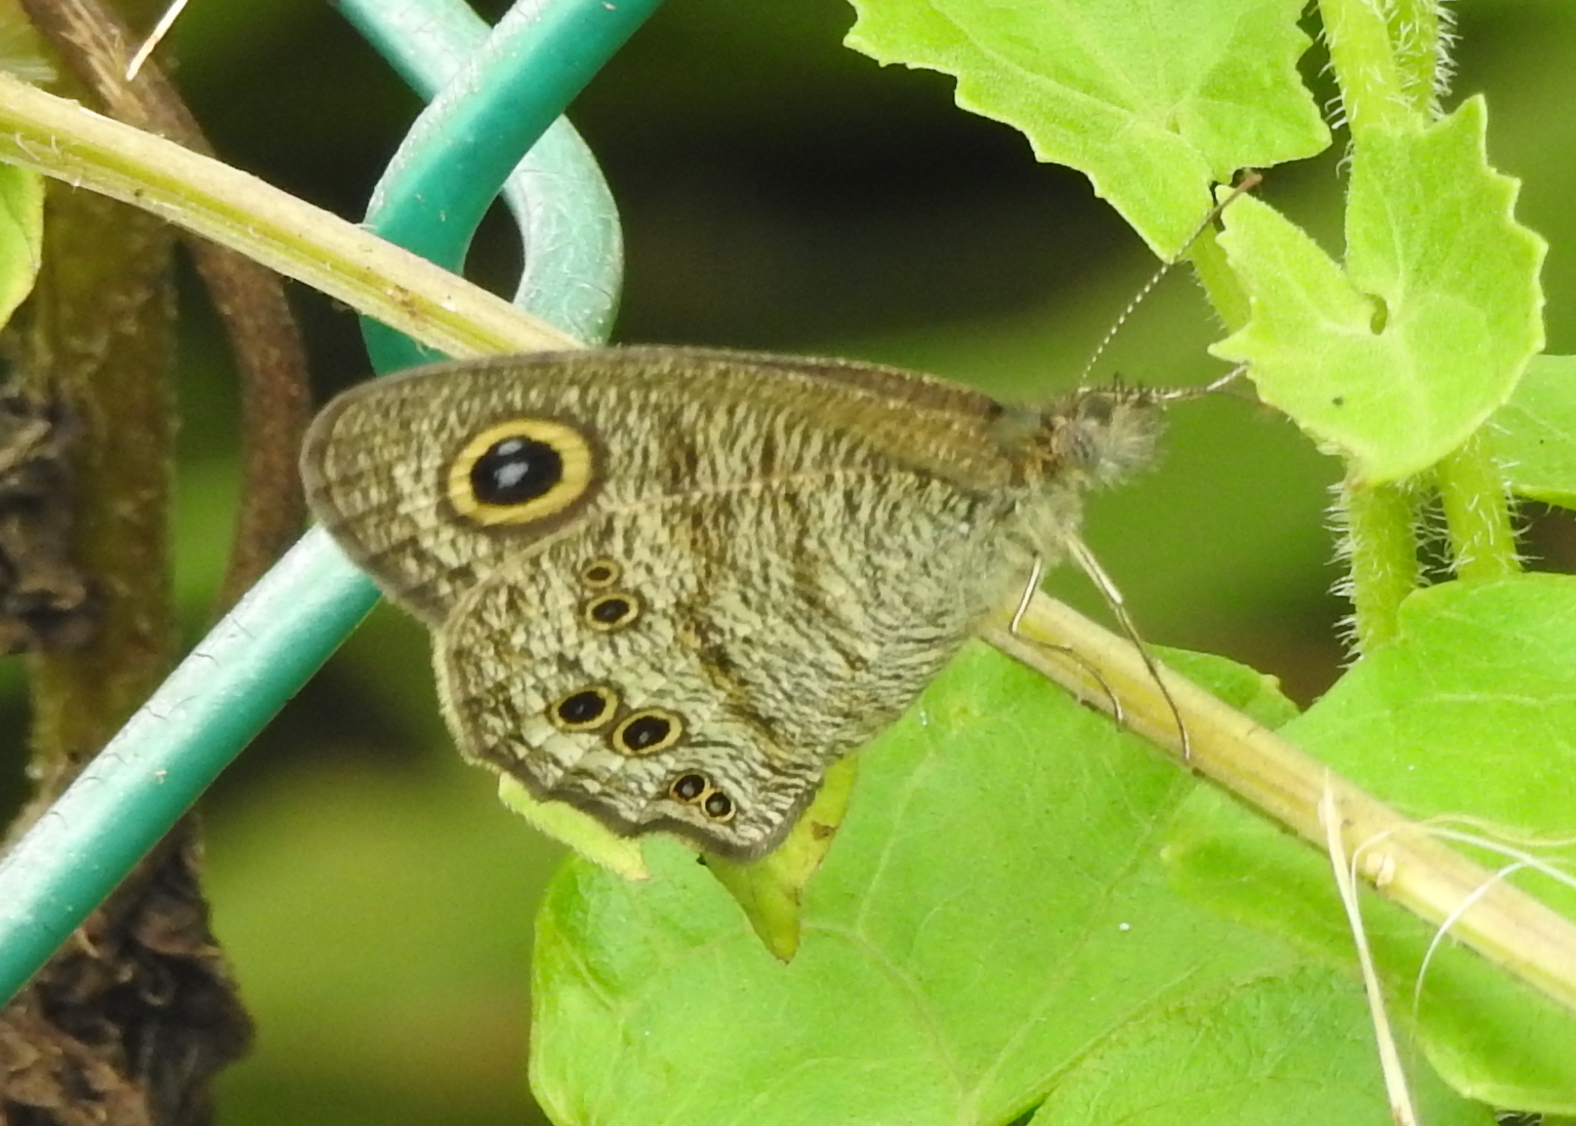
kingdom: Animalia
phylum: Arthropoda
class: Insecta
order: Lepidoptera
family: Nymphalidae
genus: Ypthima
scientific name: Ypthima baldus
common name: Common five-ring
